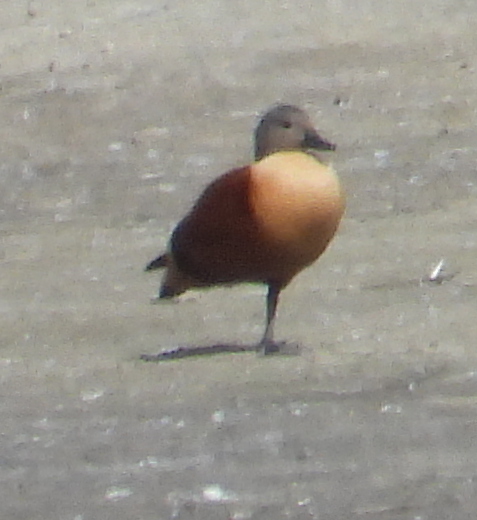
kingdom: Animalia
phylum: Chordata
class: Aves
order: Anseriformes
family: Anatidae
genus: Tadorna
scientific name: Tadorna cana
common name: South african shelduck
